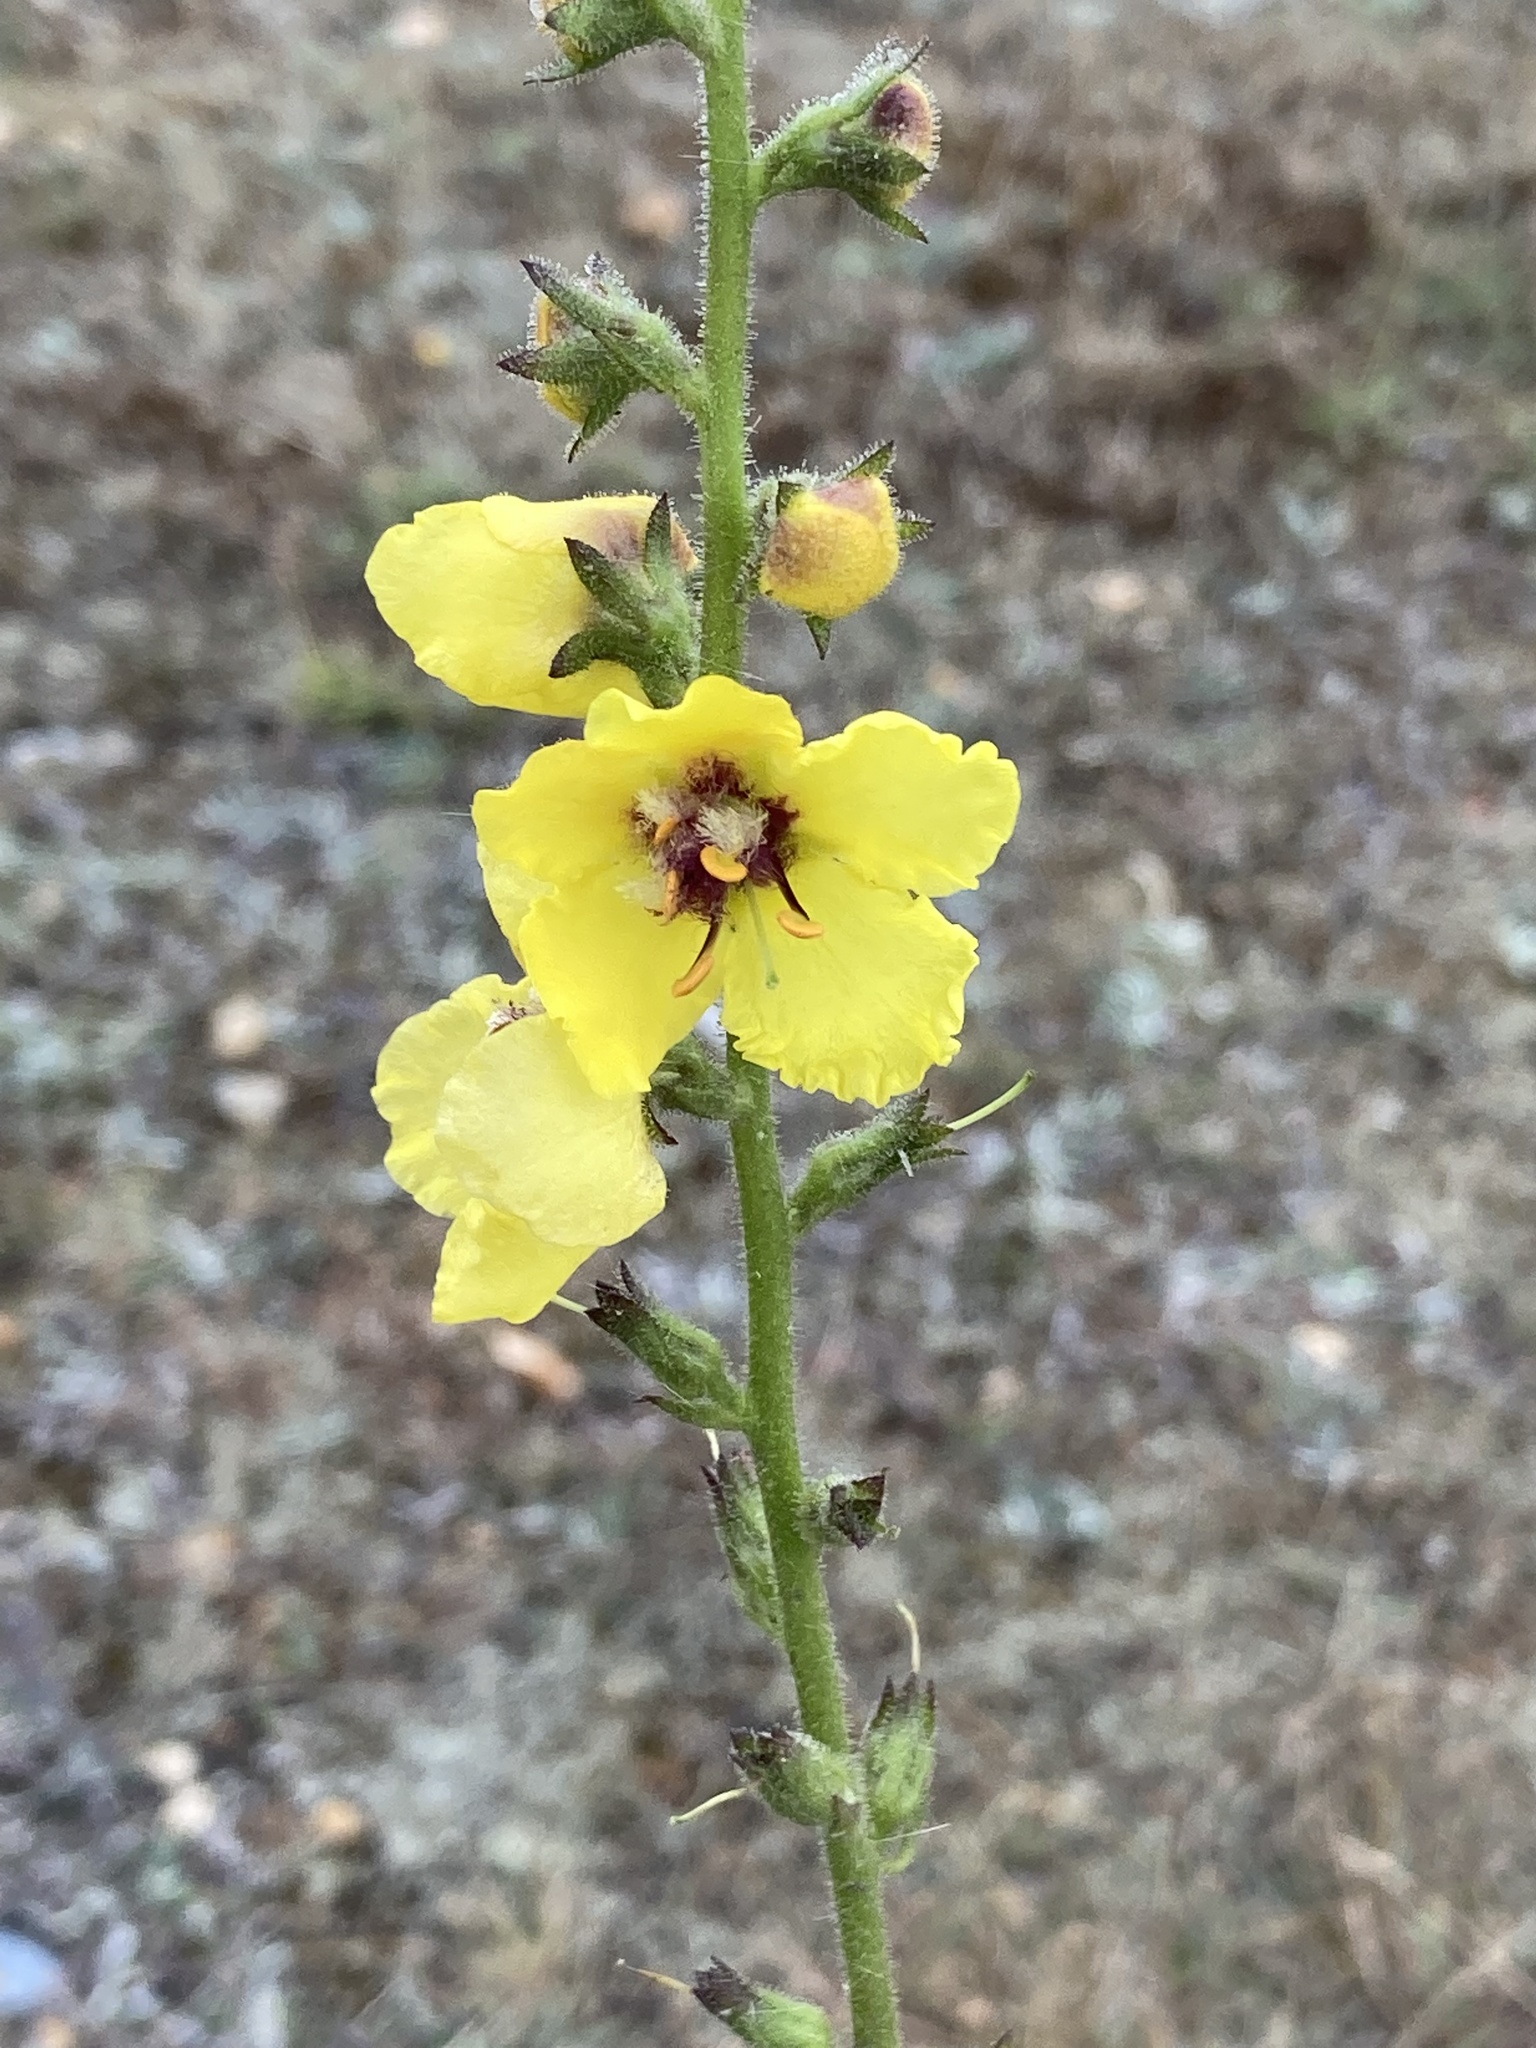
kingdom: Plantae
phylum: Tracheophyta
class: Magnoliopsida
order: Lamiales
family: Scrophulariaceae
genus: Verbascum
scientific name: Verbascum virgatum
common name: Twiggy mullein
